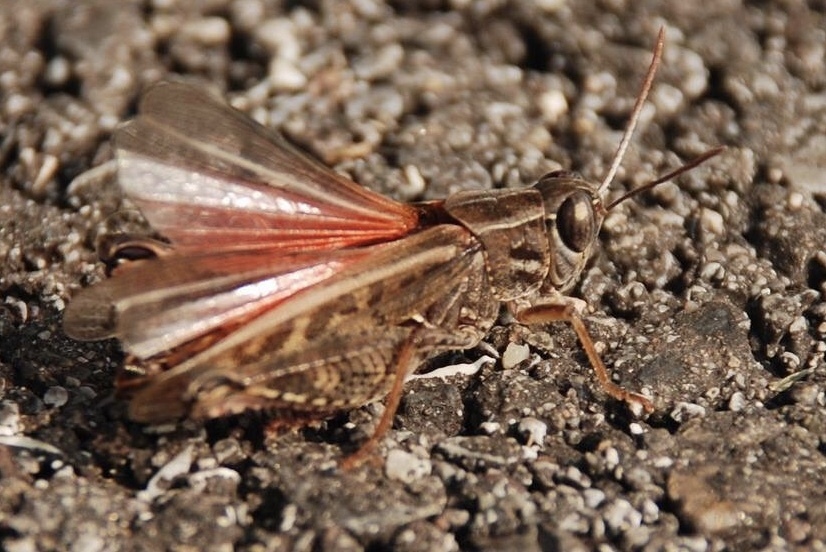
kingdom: Animalia
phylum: Arthropoda
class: Insecta
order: Orthoptera
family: Acrididae
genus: Calliptamus
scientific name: Calliptamus italicus
